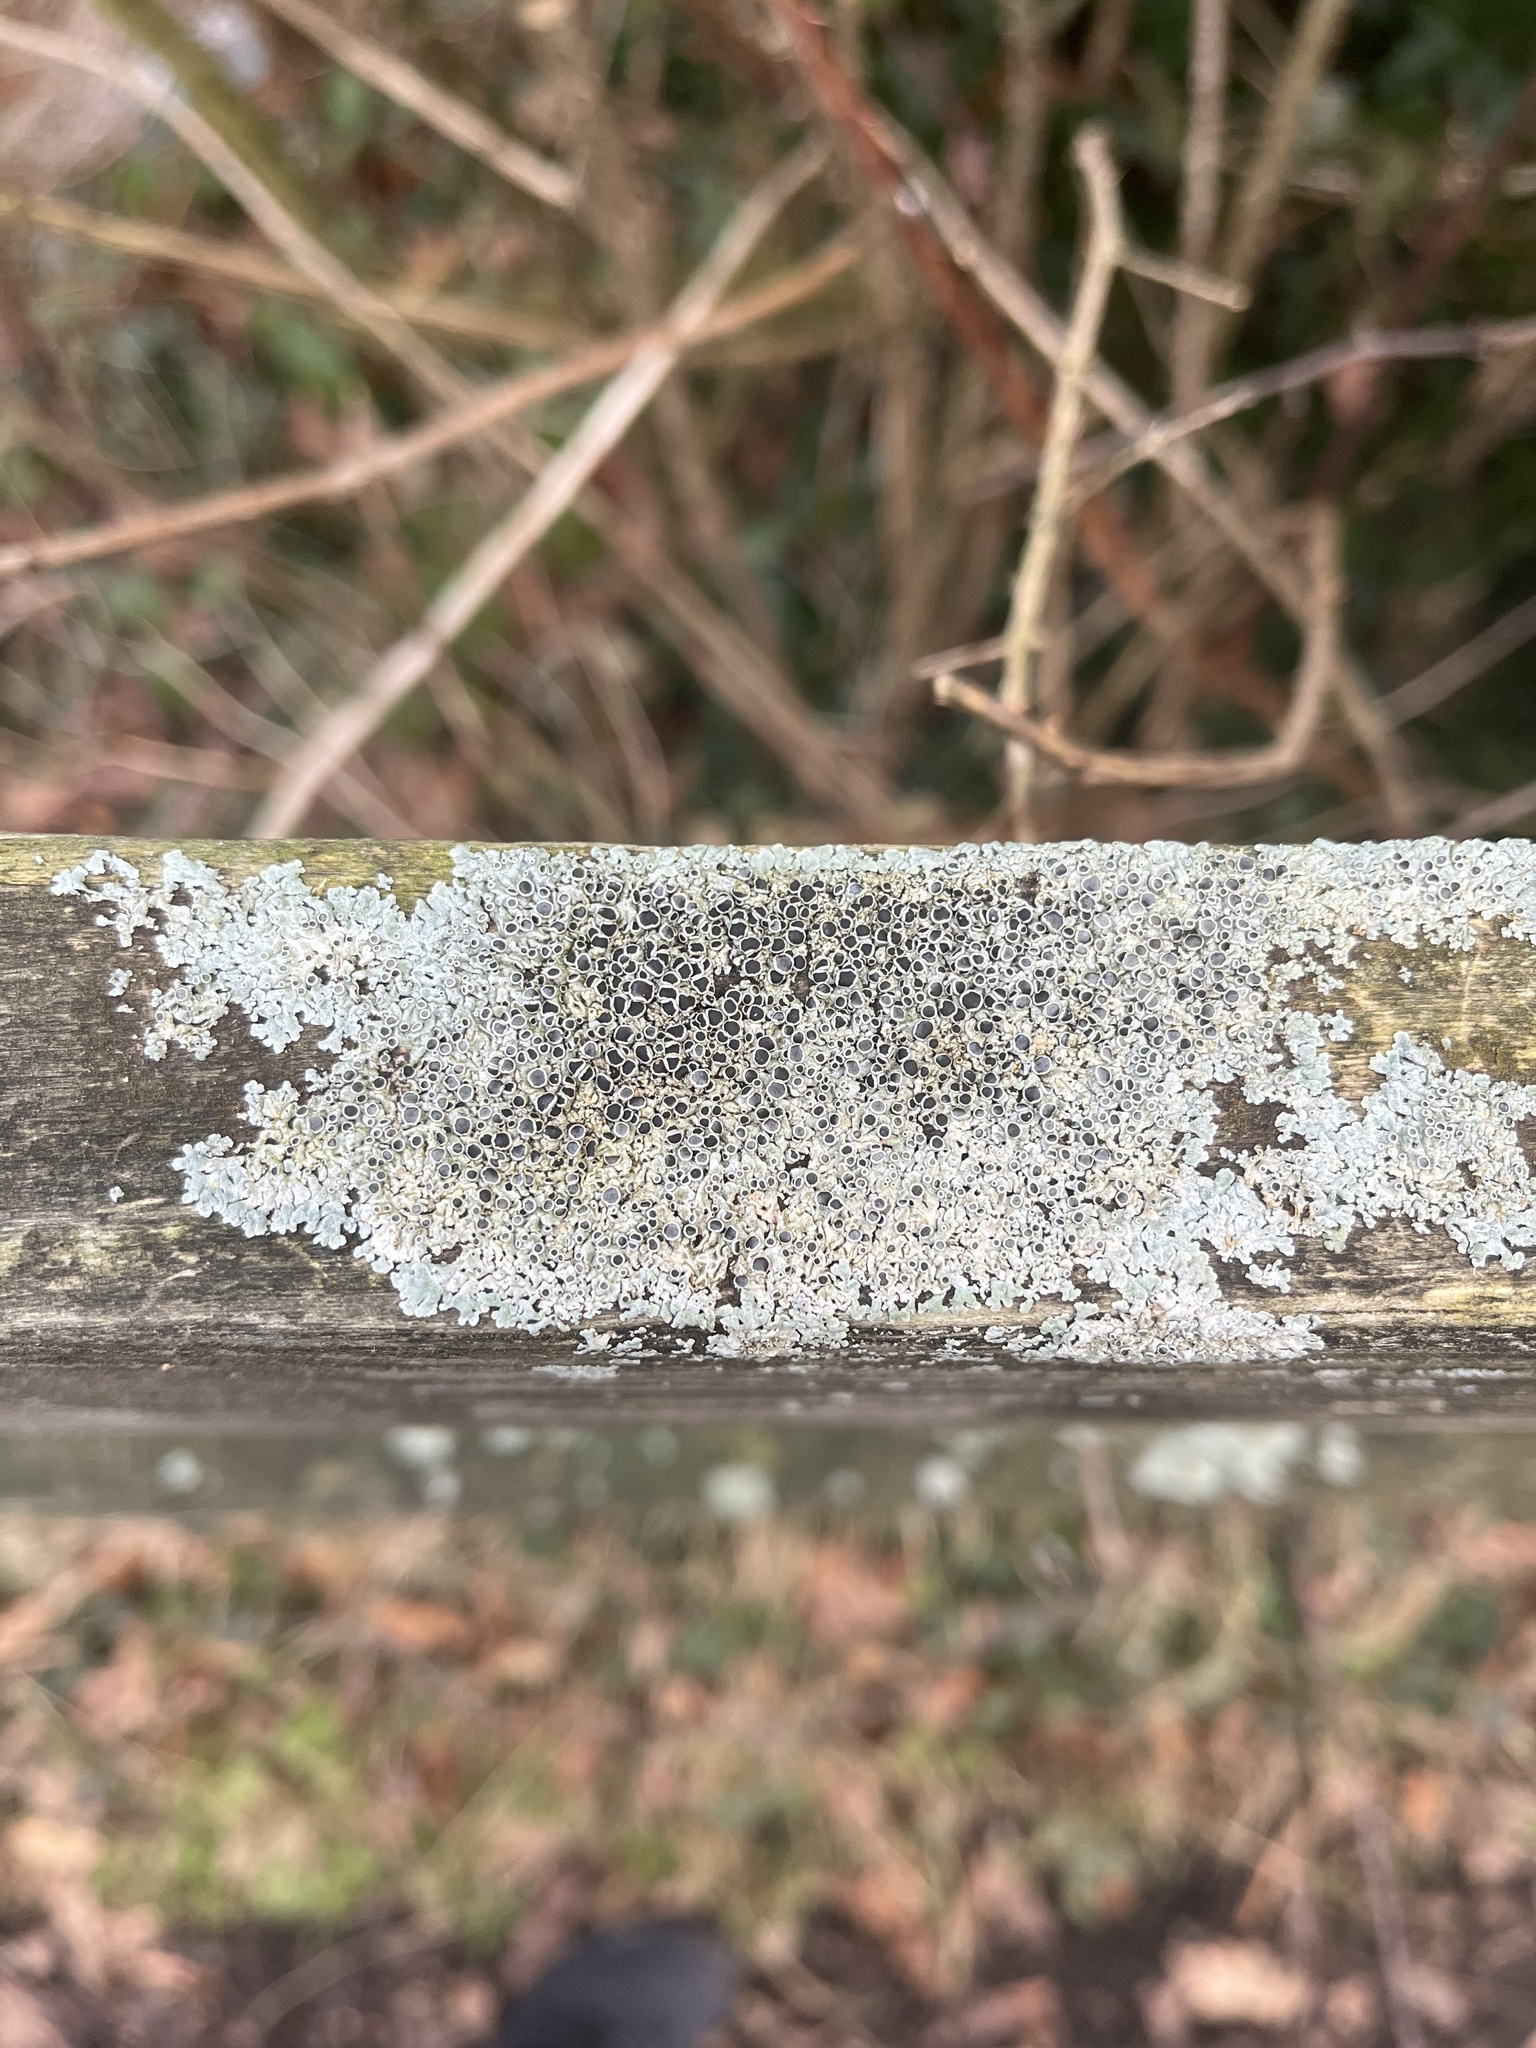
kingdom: Fungi
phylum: Ascomycota
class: Lecanoromycetes
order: Caliciales
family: Physciaceae
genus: Physcia
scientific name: Physcia aipolia
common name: Hoary rosette lichen
